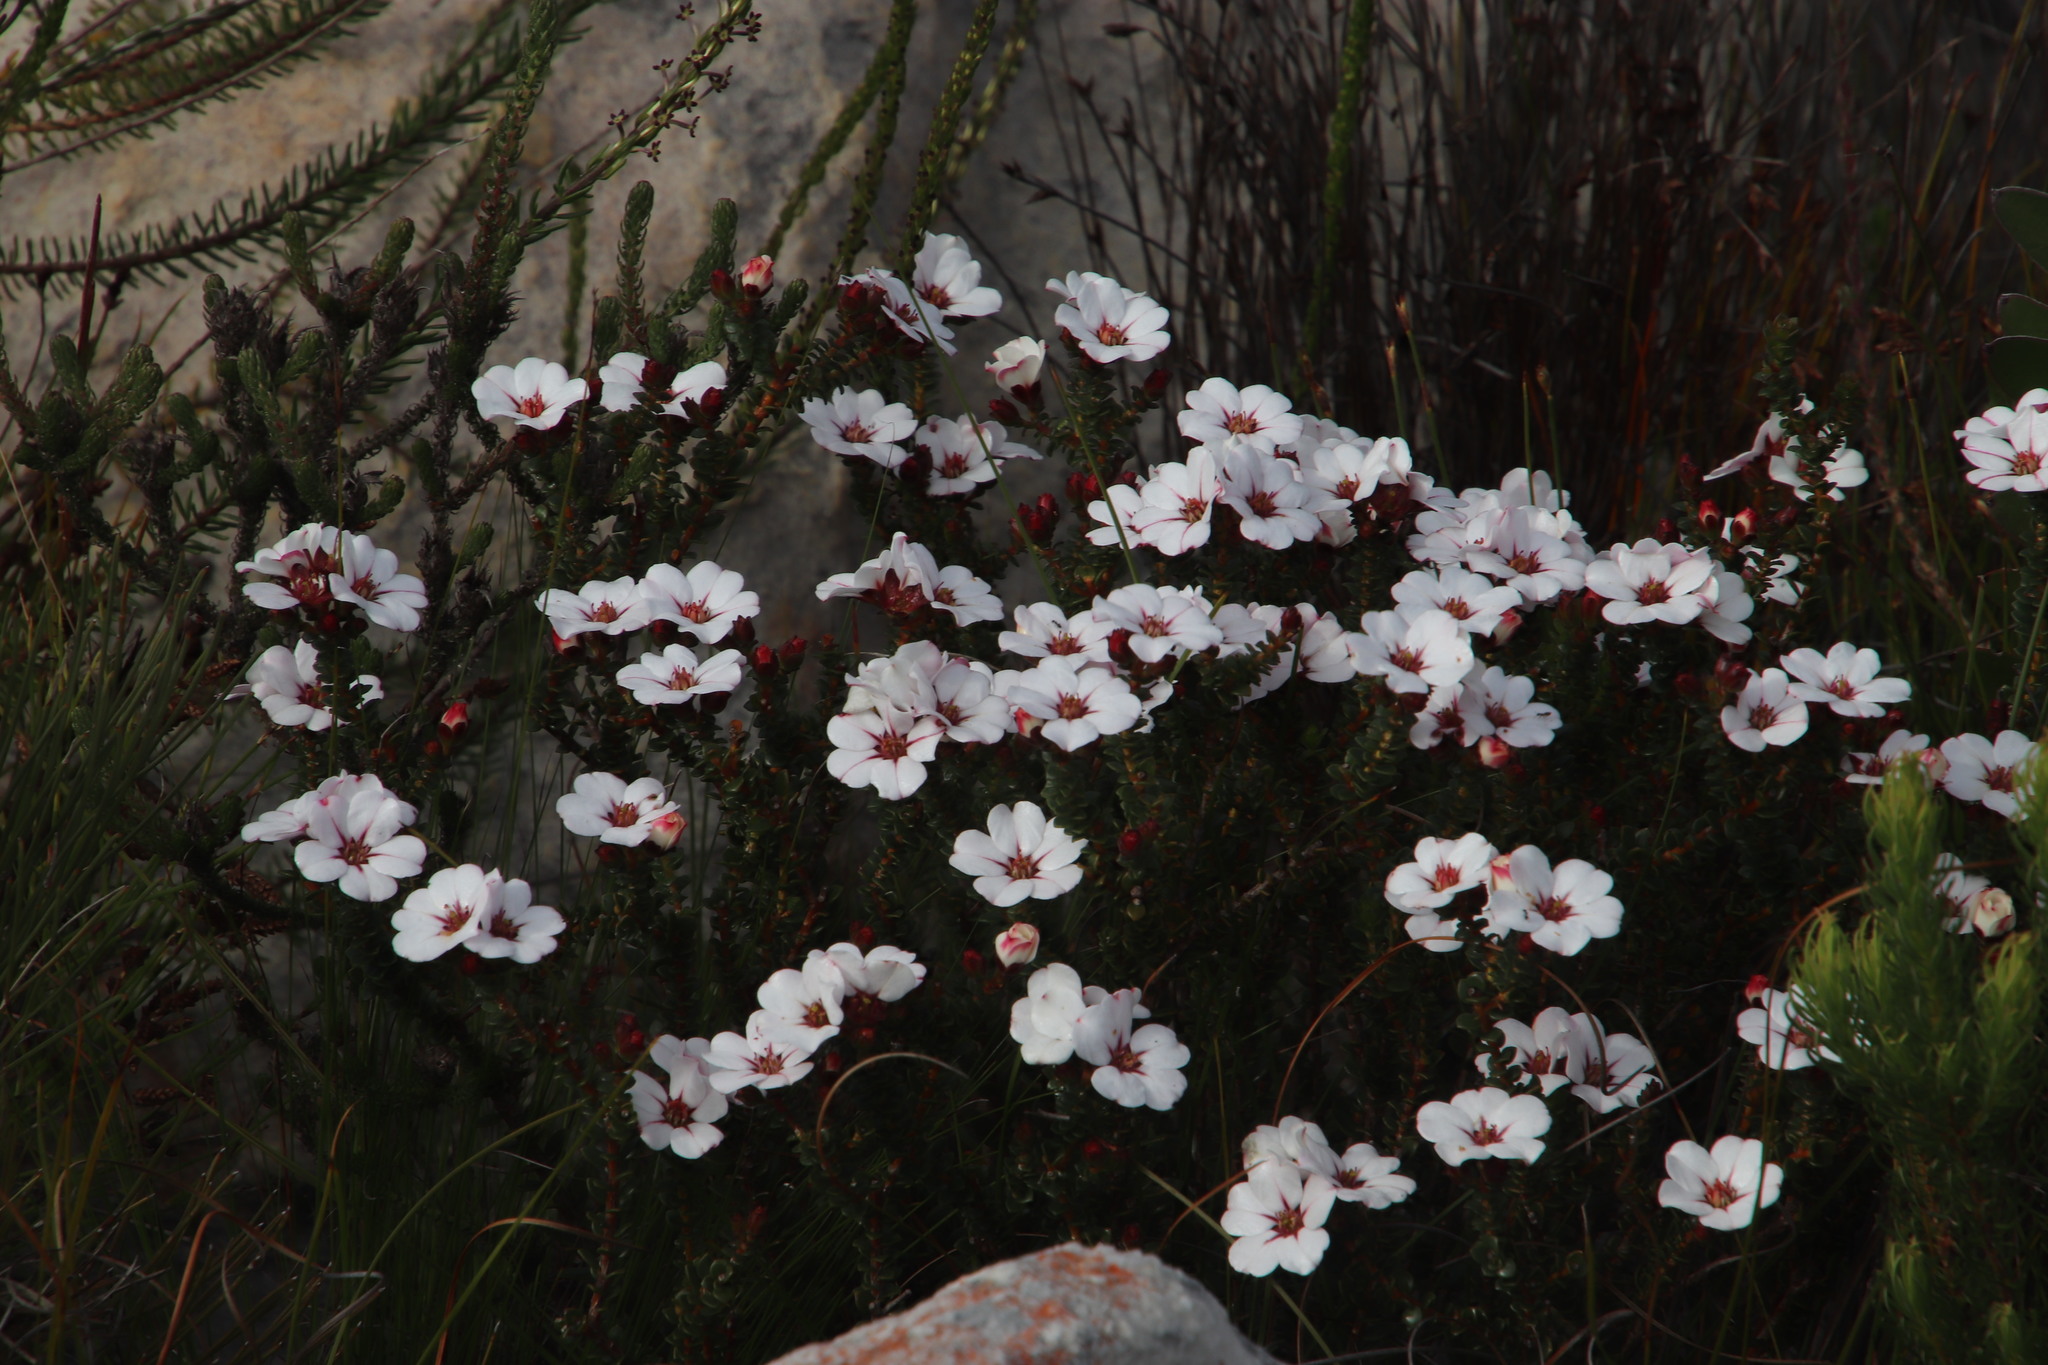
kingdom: Plantae
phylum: Tracheophyta
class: Magnoliopsida
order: Sapindales
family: Rutaceae
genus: Adenandra
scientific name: Adenandra villosa
